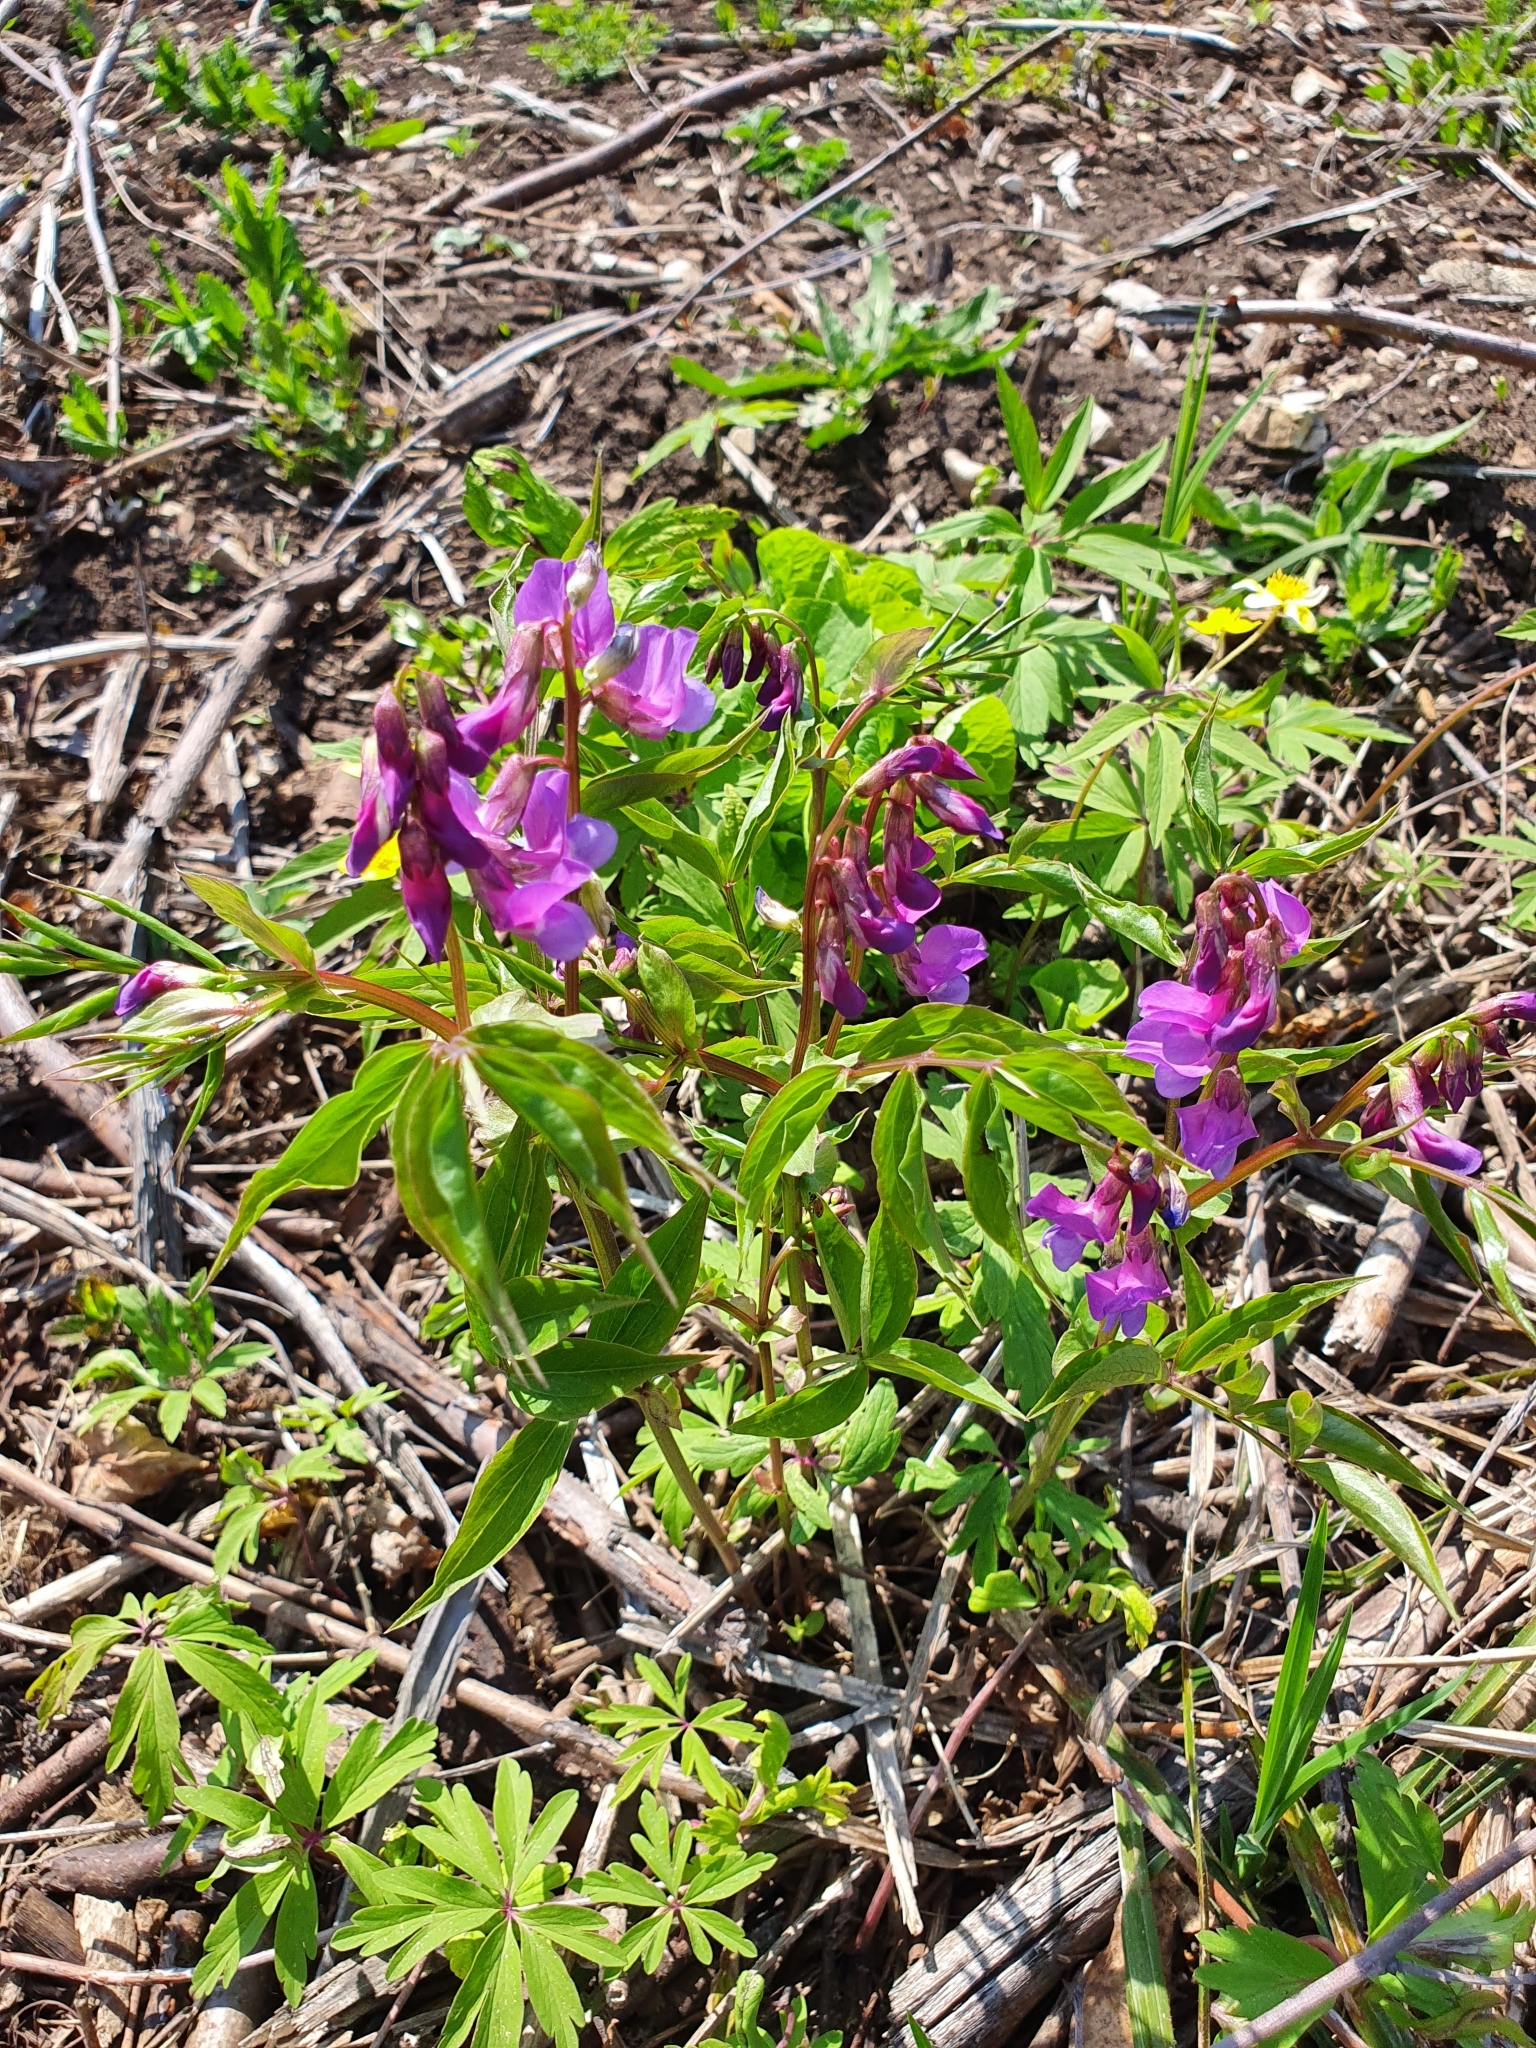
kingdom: Plantae
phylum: Tracheophyta
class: Magnoliopsida
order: Fabales
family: Fabaceae
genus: Lathyrus
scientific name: Lathyrus vernus
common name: Spring pea
